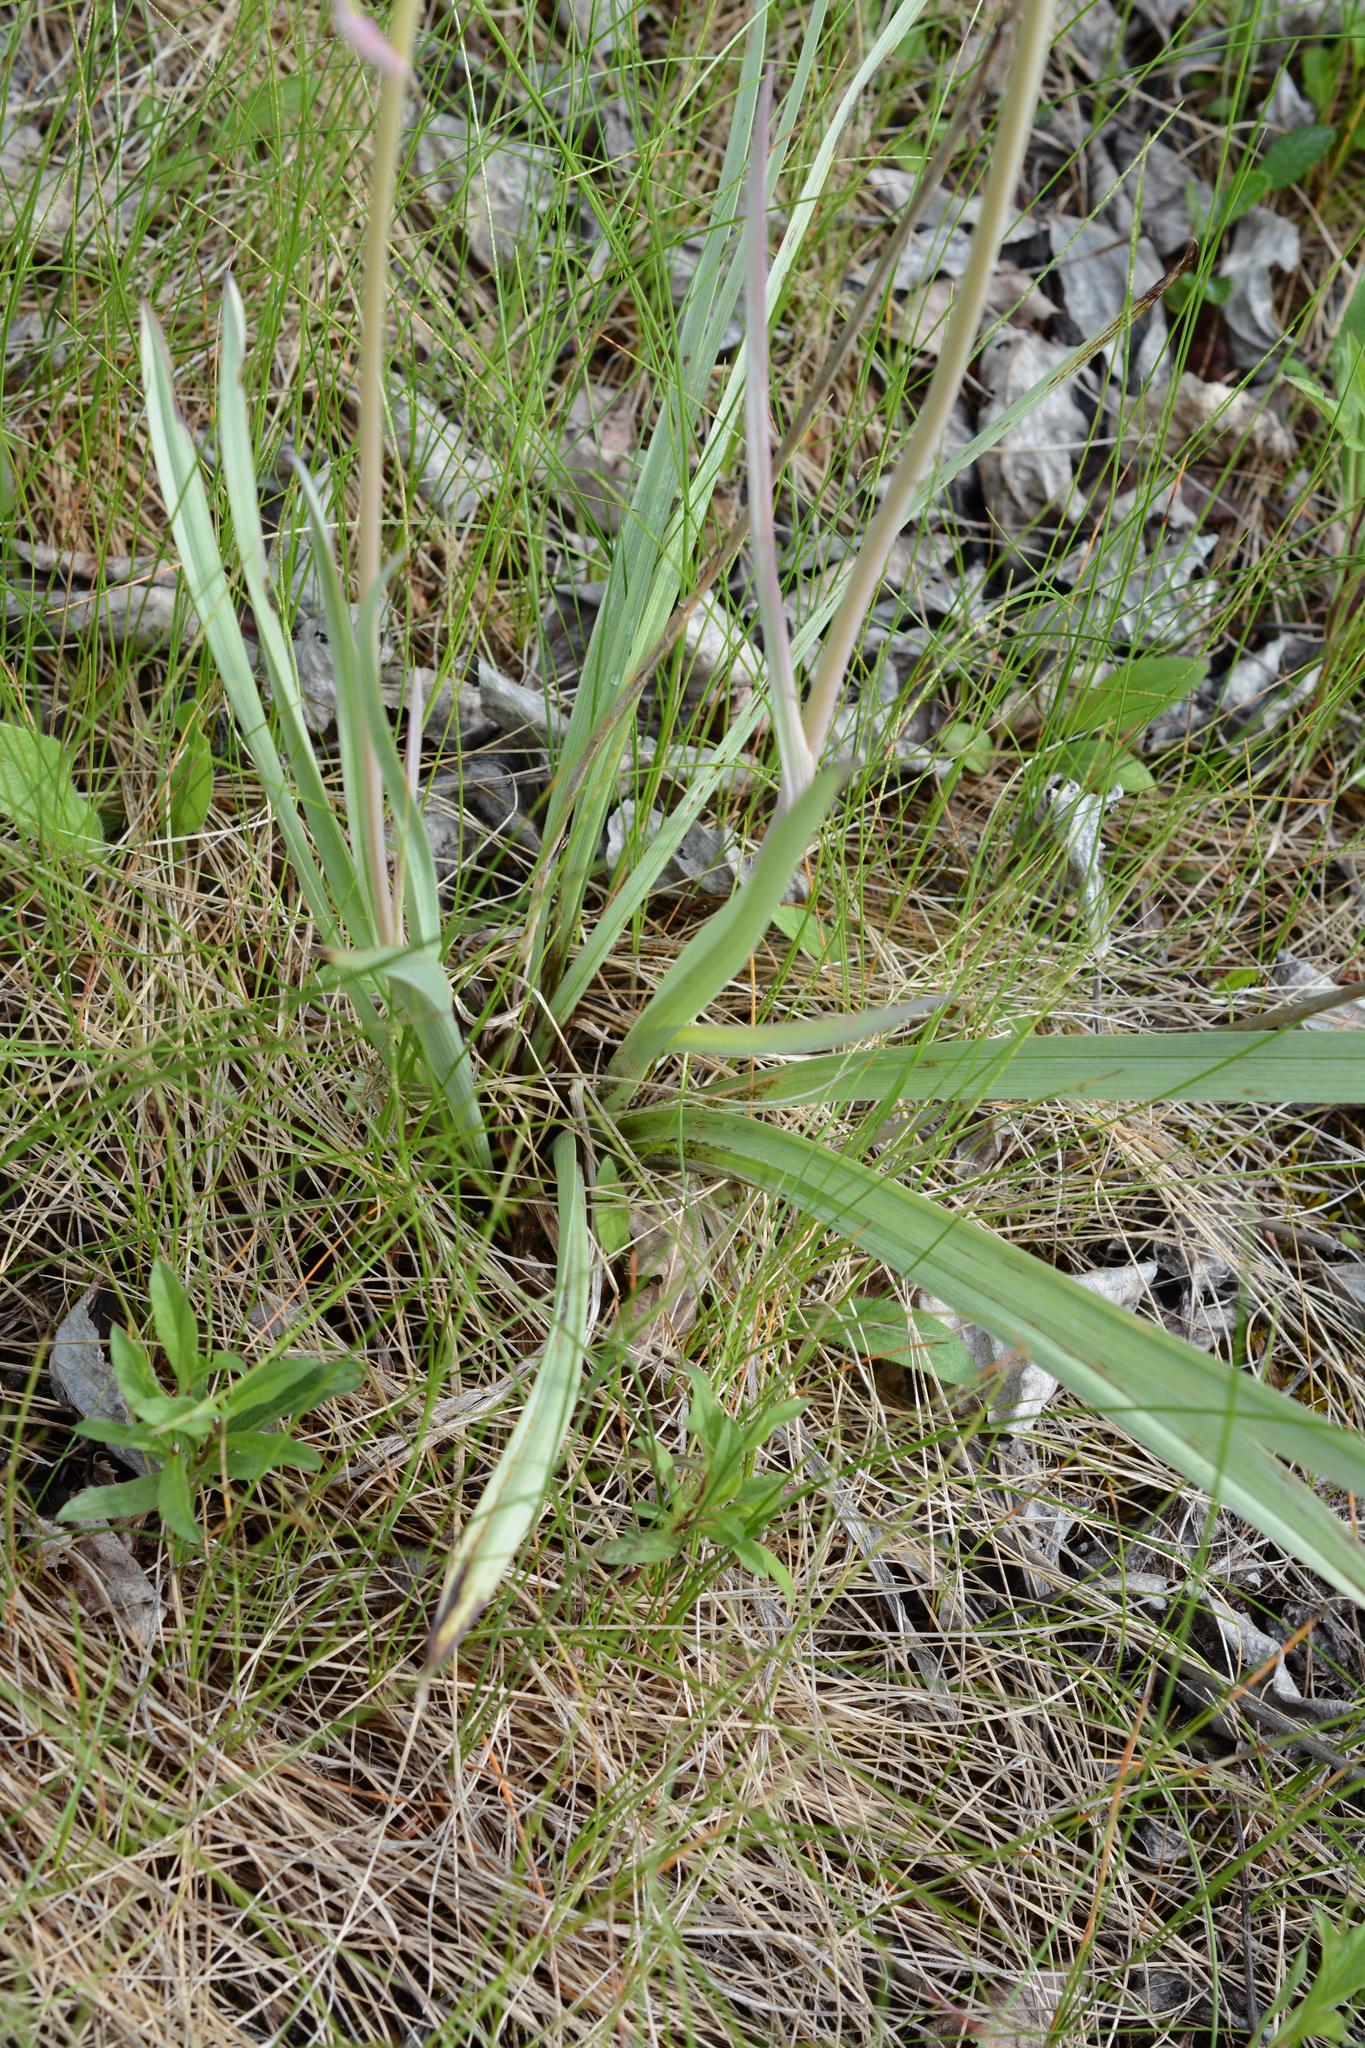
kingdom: Plantae
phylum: Tracheophyta
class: Liliopsida
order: Liliales
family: Melanthiaceae
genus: Anticlea
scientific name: Anticlea elegans
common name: Mountain death camas
